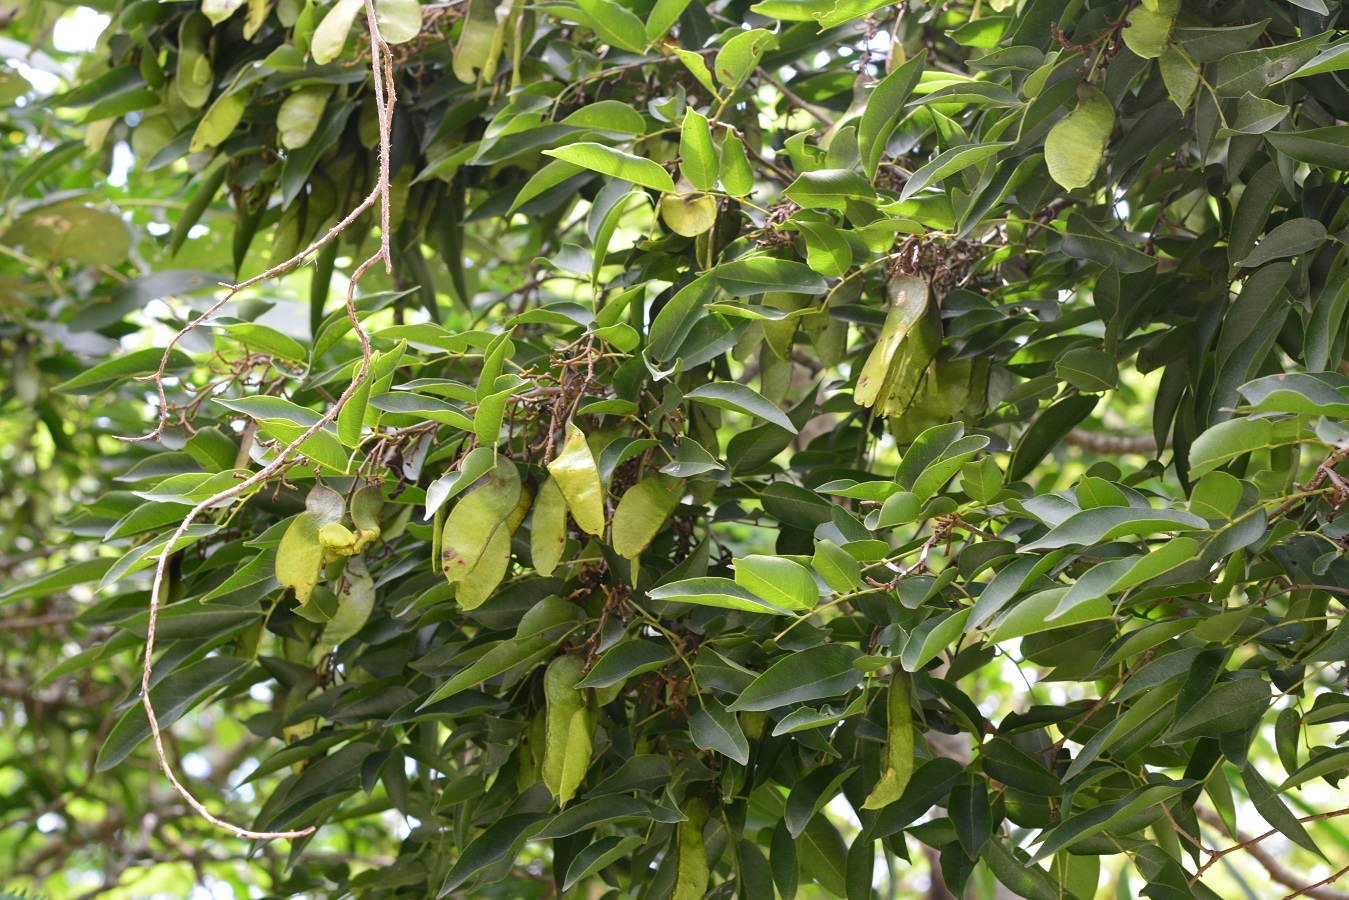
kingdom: Plantae
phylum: Tracheophyta
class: Magnoliopsida
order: Fabales
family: Fabaceae
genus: Lonchocarpus
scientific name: Lonchocarpus sumiderensis
